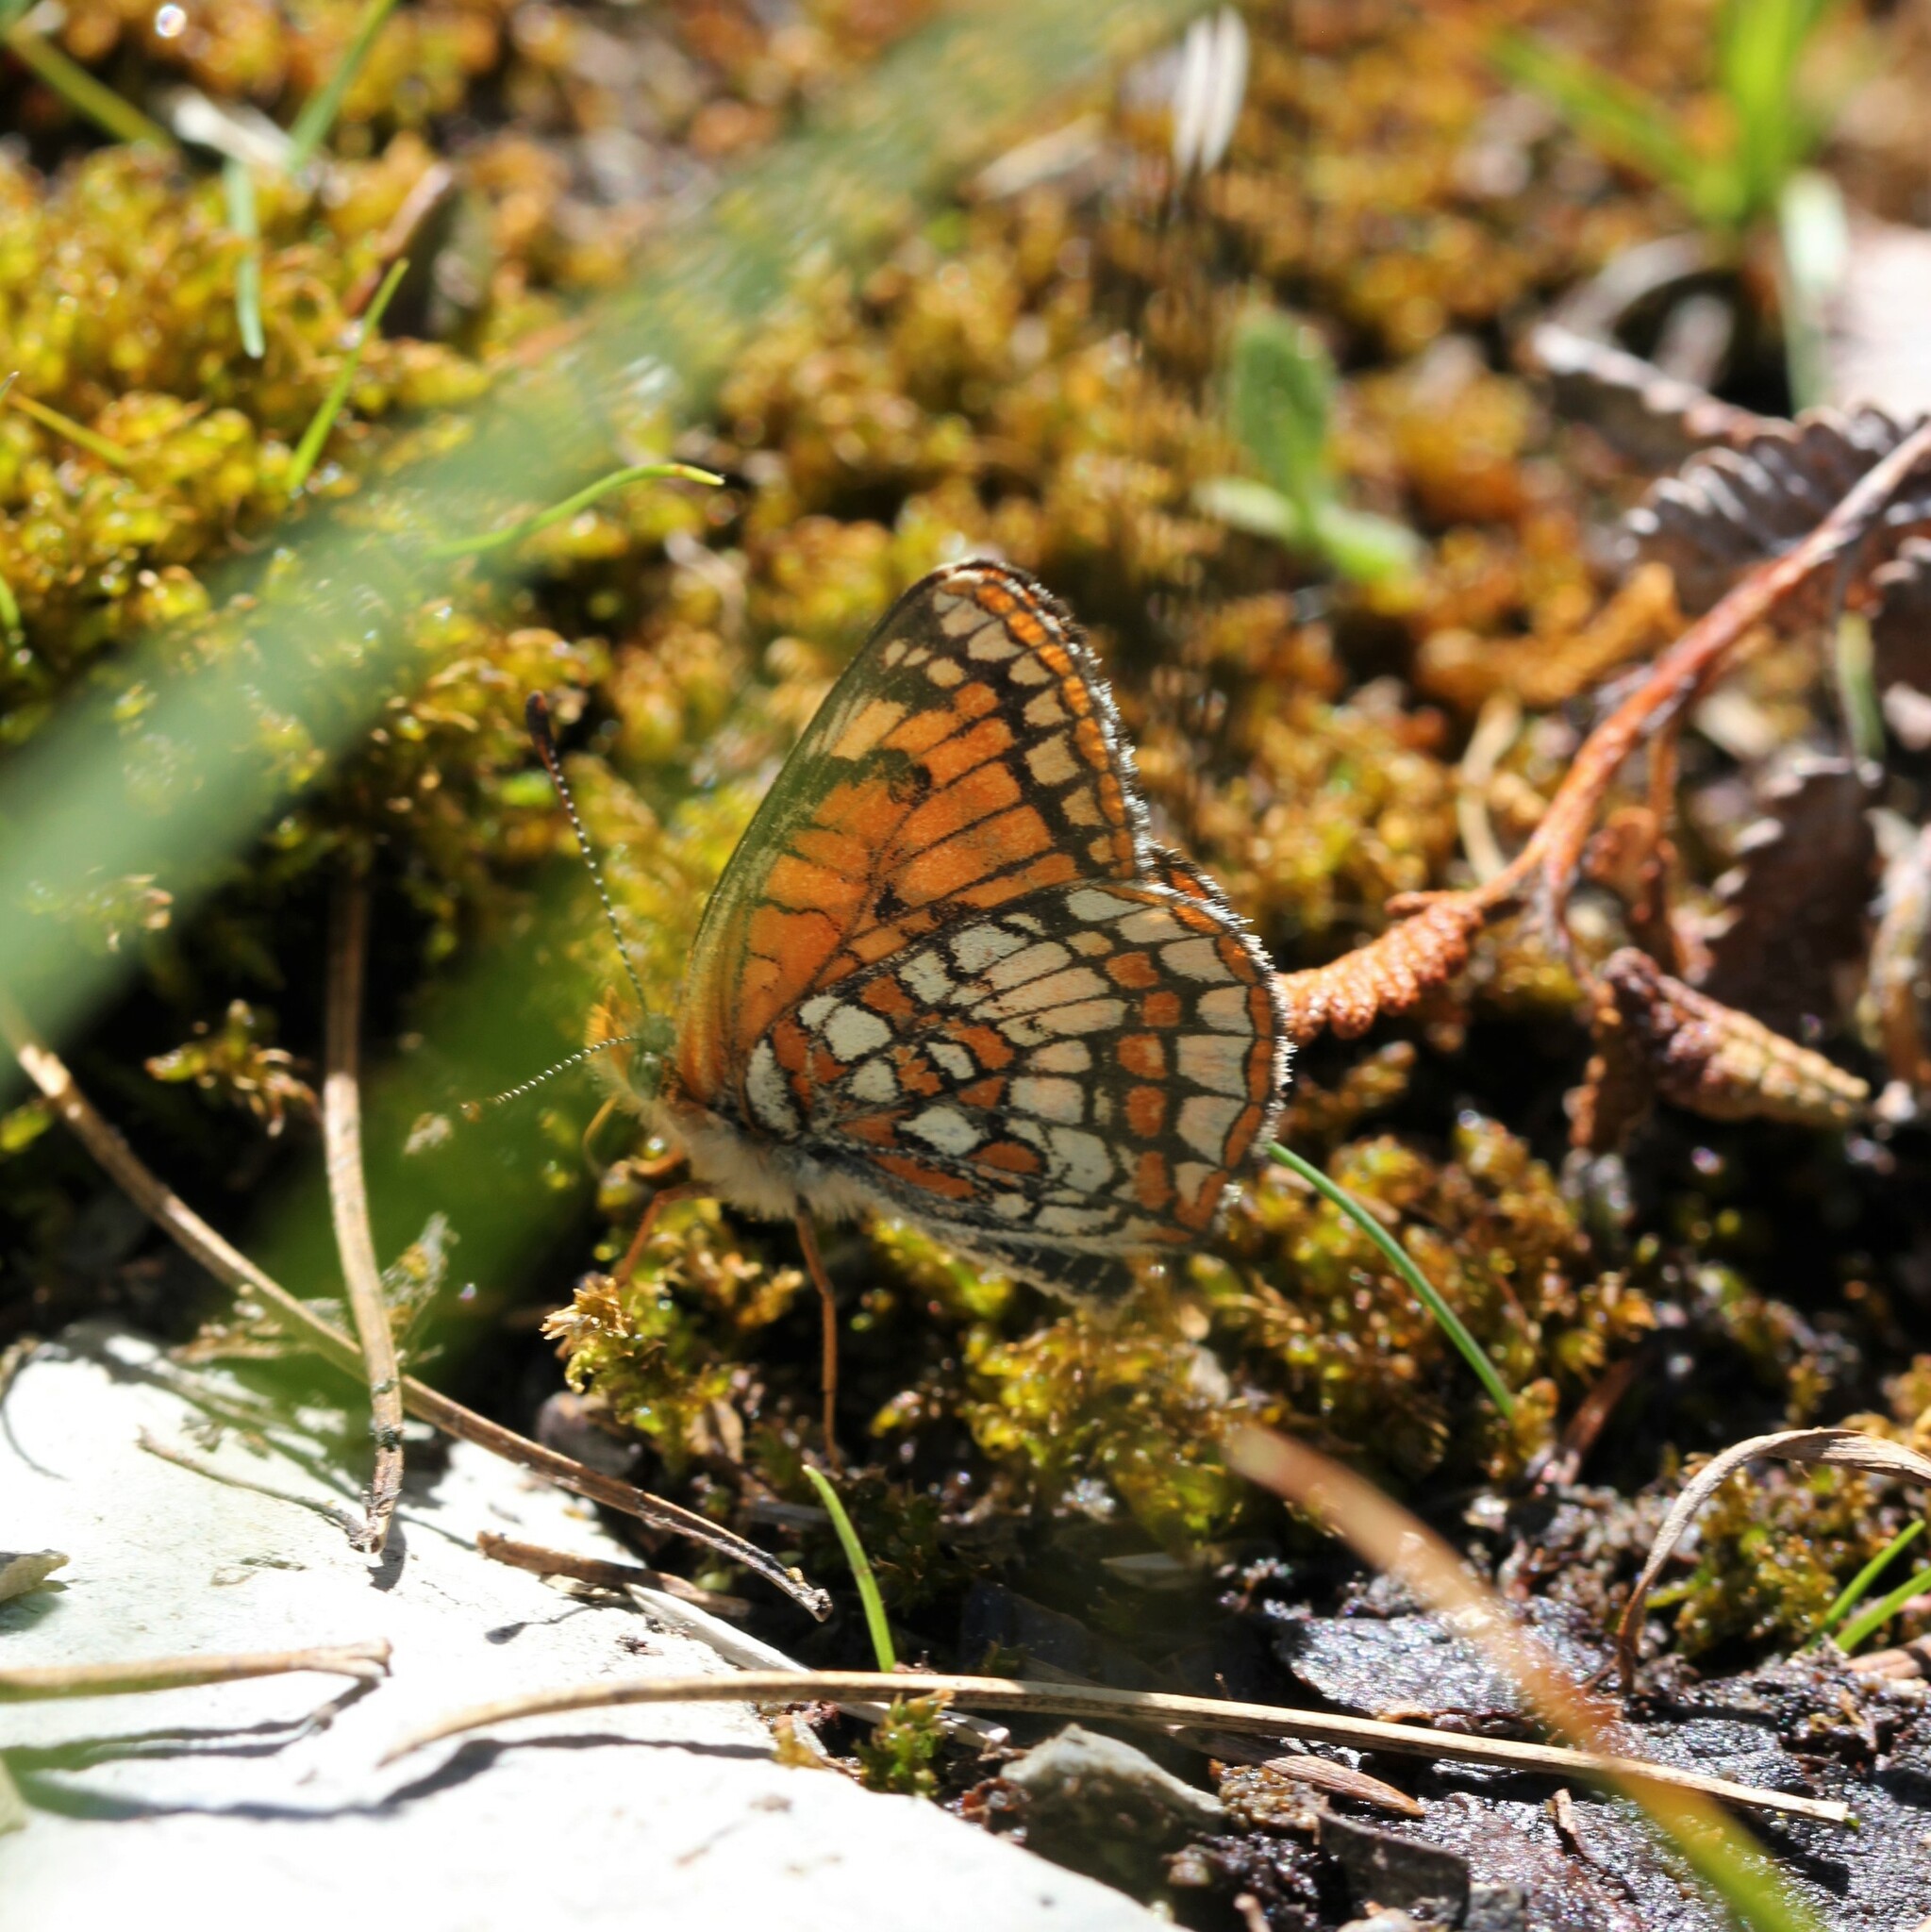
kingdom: Animalia
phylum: Arthropoda
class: Insecta
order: Lepidoptera
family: Nymphalidae
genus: Chlosyne
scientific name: Chlosyne damoetas
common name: Rockslide checkerspot
